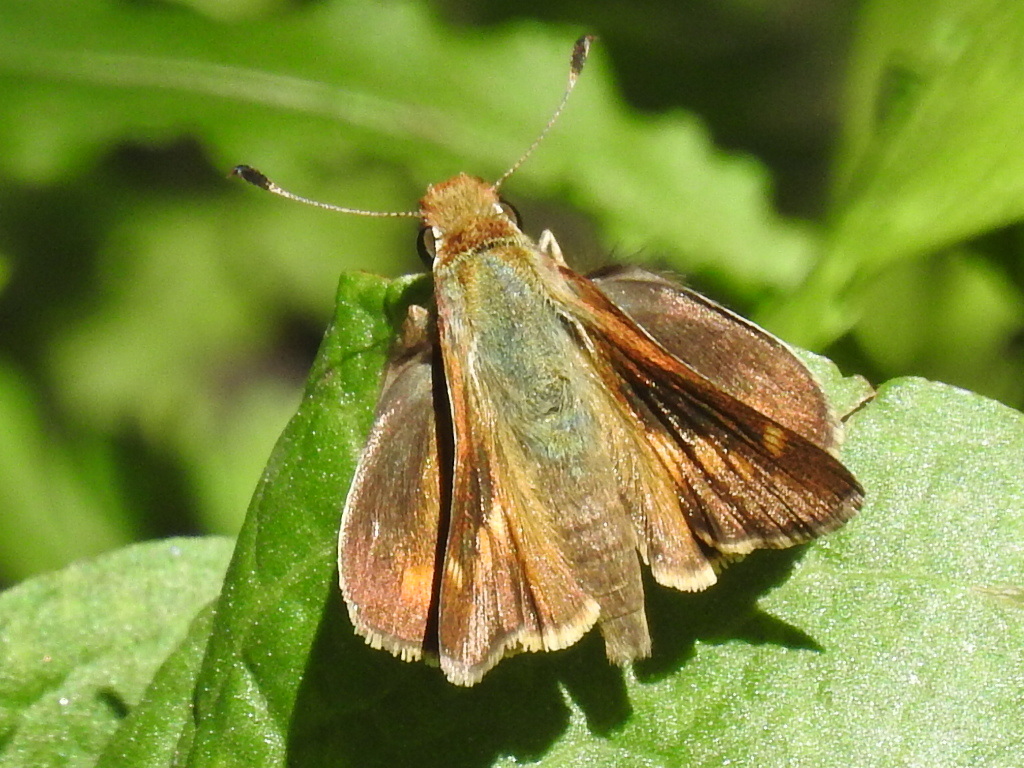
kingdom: Animalia
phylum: Arthropoda
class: Insecta
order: Lepidoptera
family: Hesperiidae
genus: Lon
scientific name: Lon melane
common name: Umber skipper
